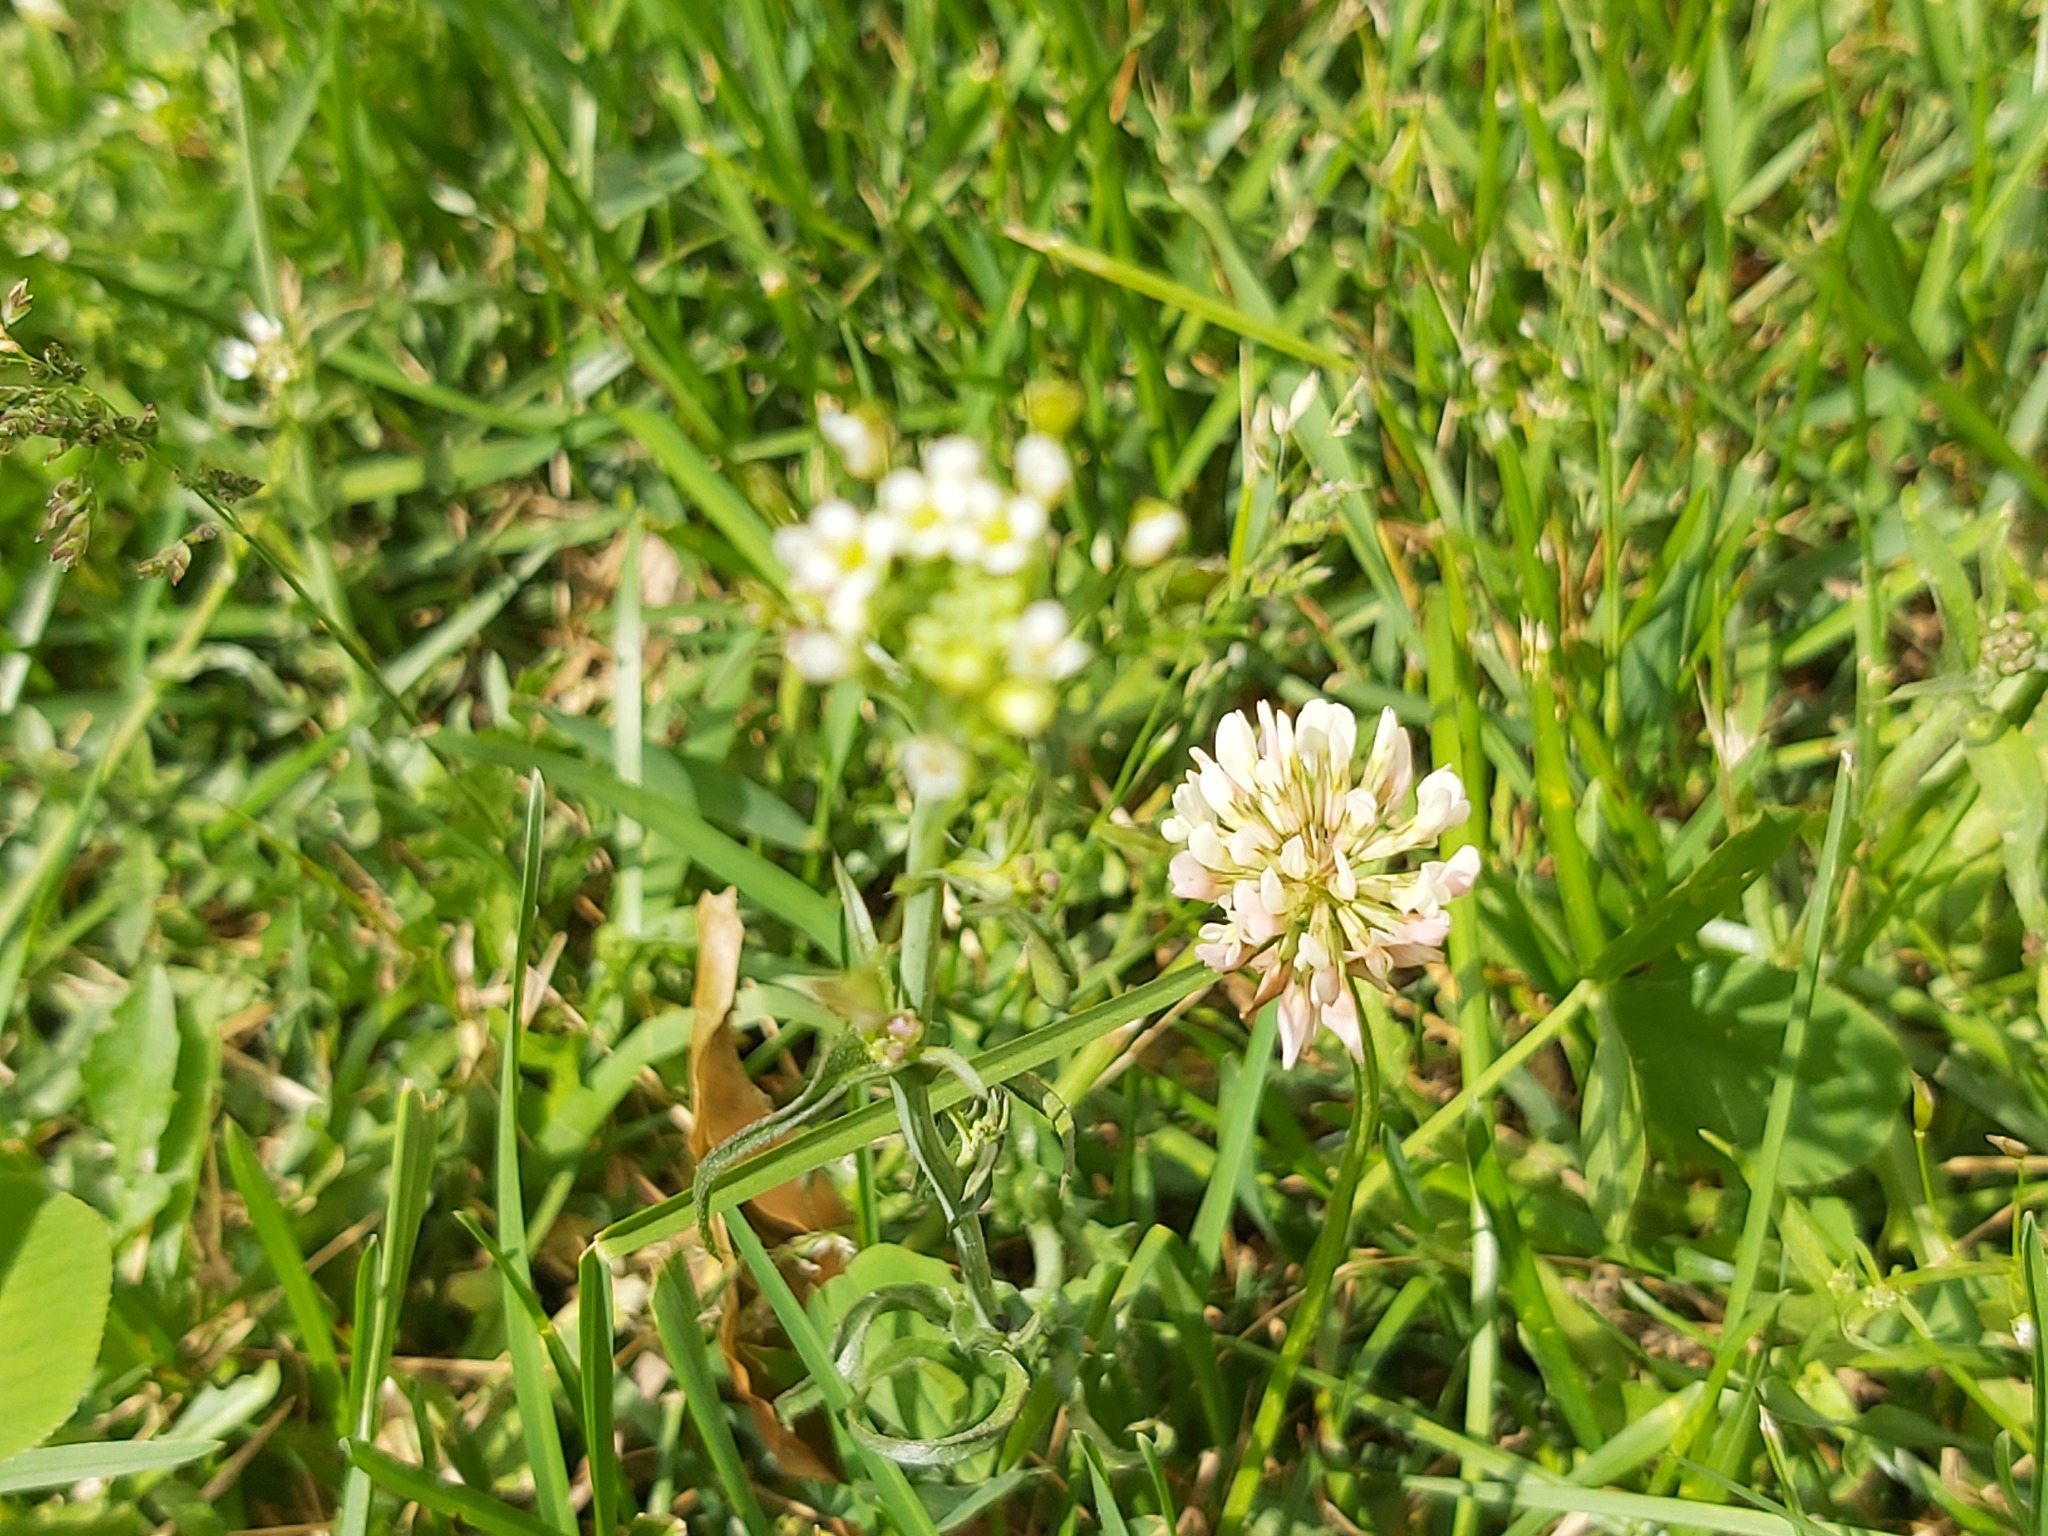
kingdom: Plantae
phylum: Tracheophyta
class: Magnoliopsida
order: Fabales
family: Fabaceae
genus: Trifolium
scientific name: Trifolium repens
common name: White clover
